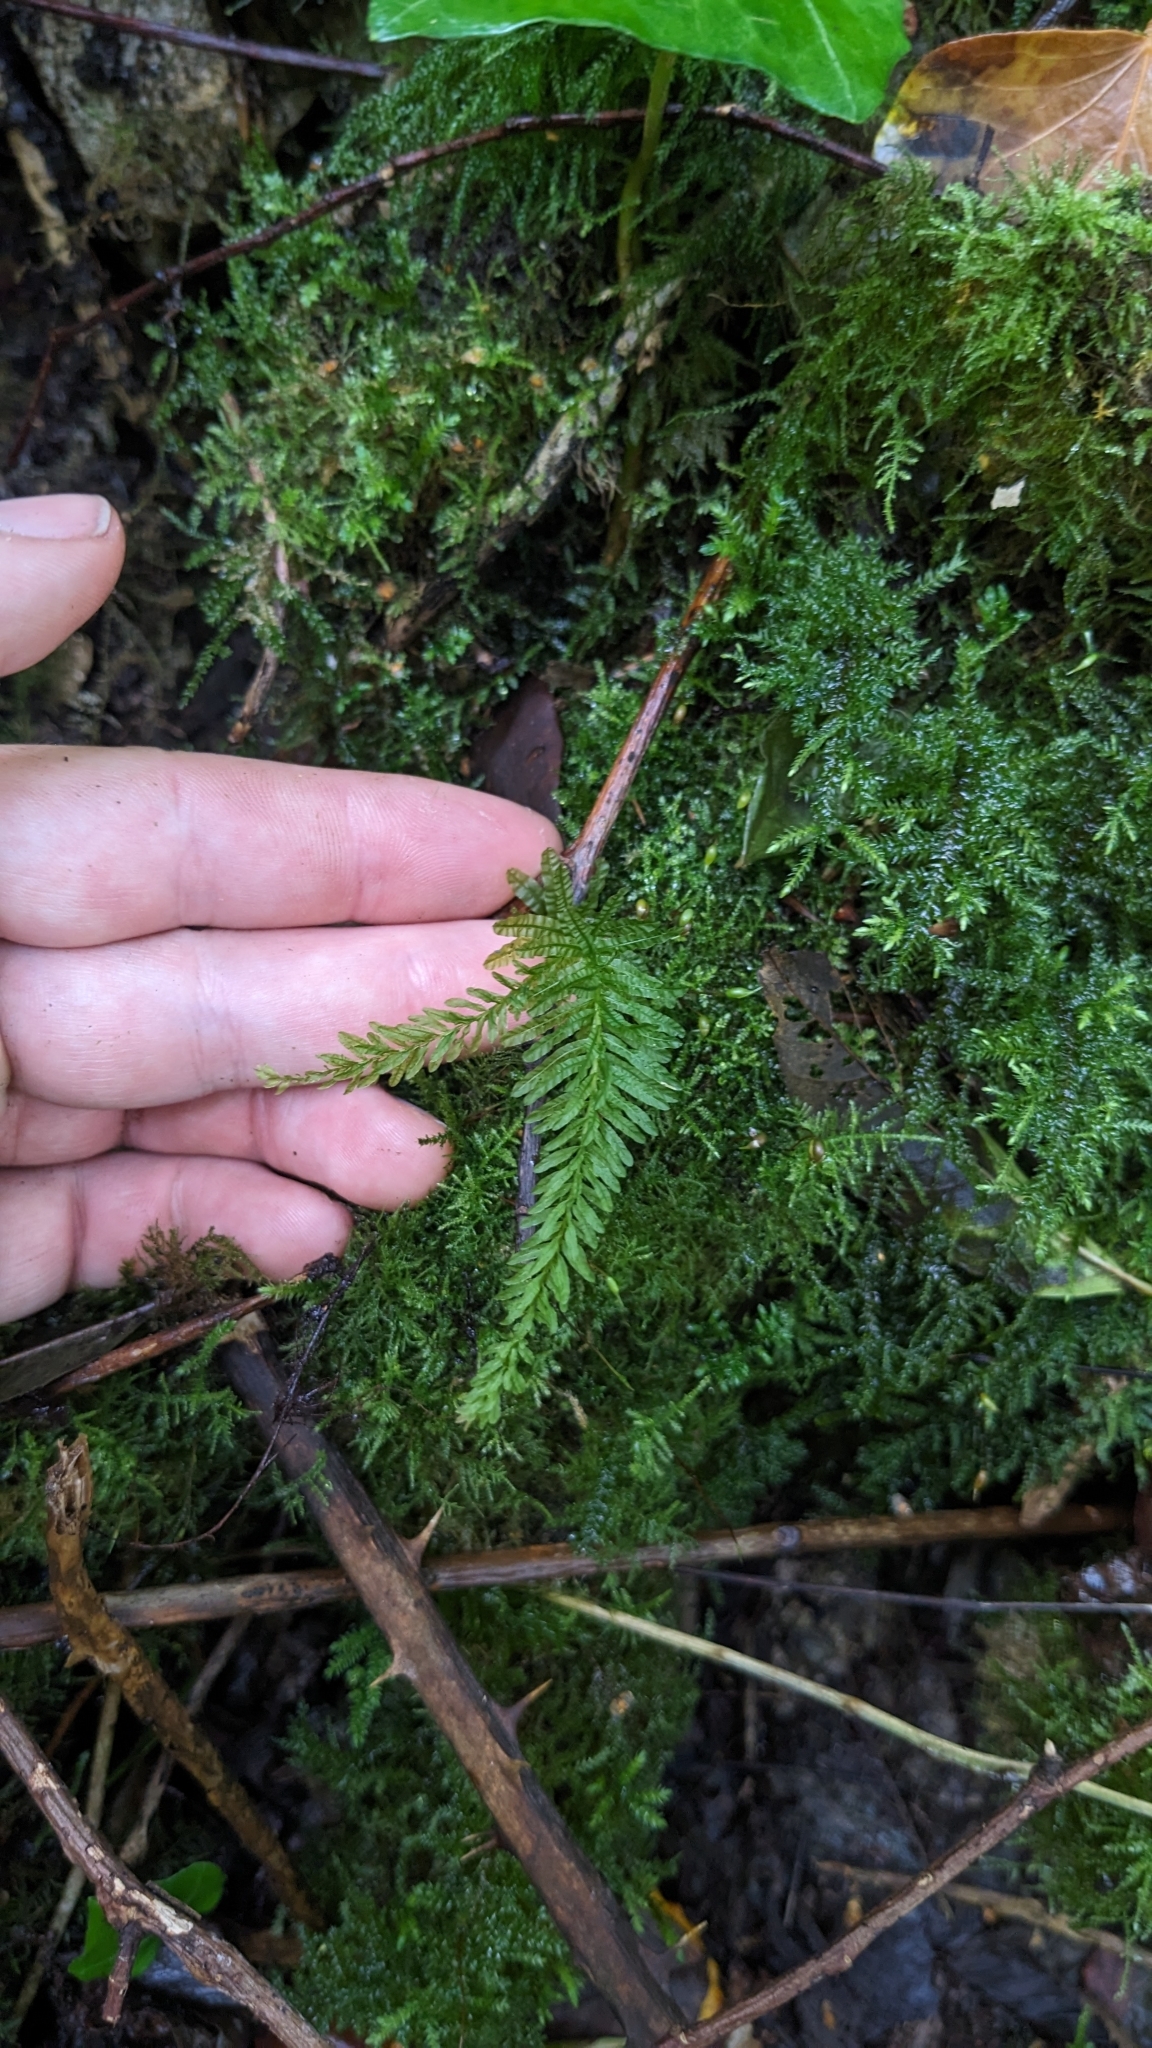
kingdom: Plantae
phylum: Bryophyta
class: Bryopsida
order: Bryales
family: Mniaceae
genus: Plagiomnium
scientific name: Plagiomnium undulatum
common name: Hart's-tongue thyme-moss
